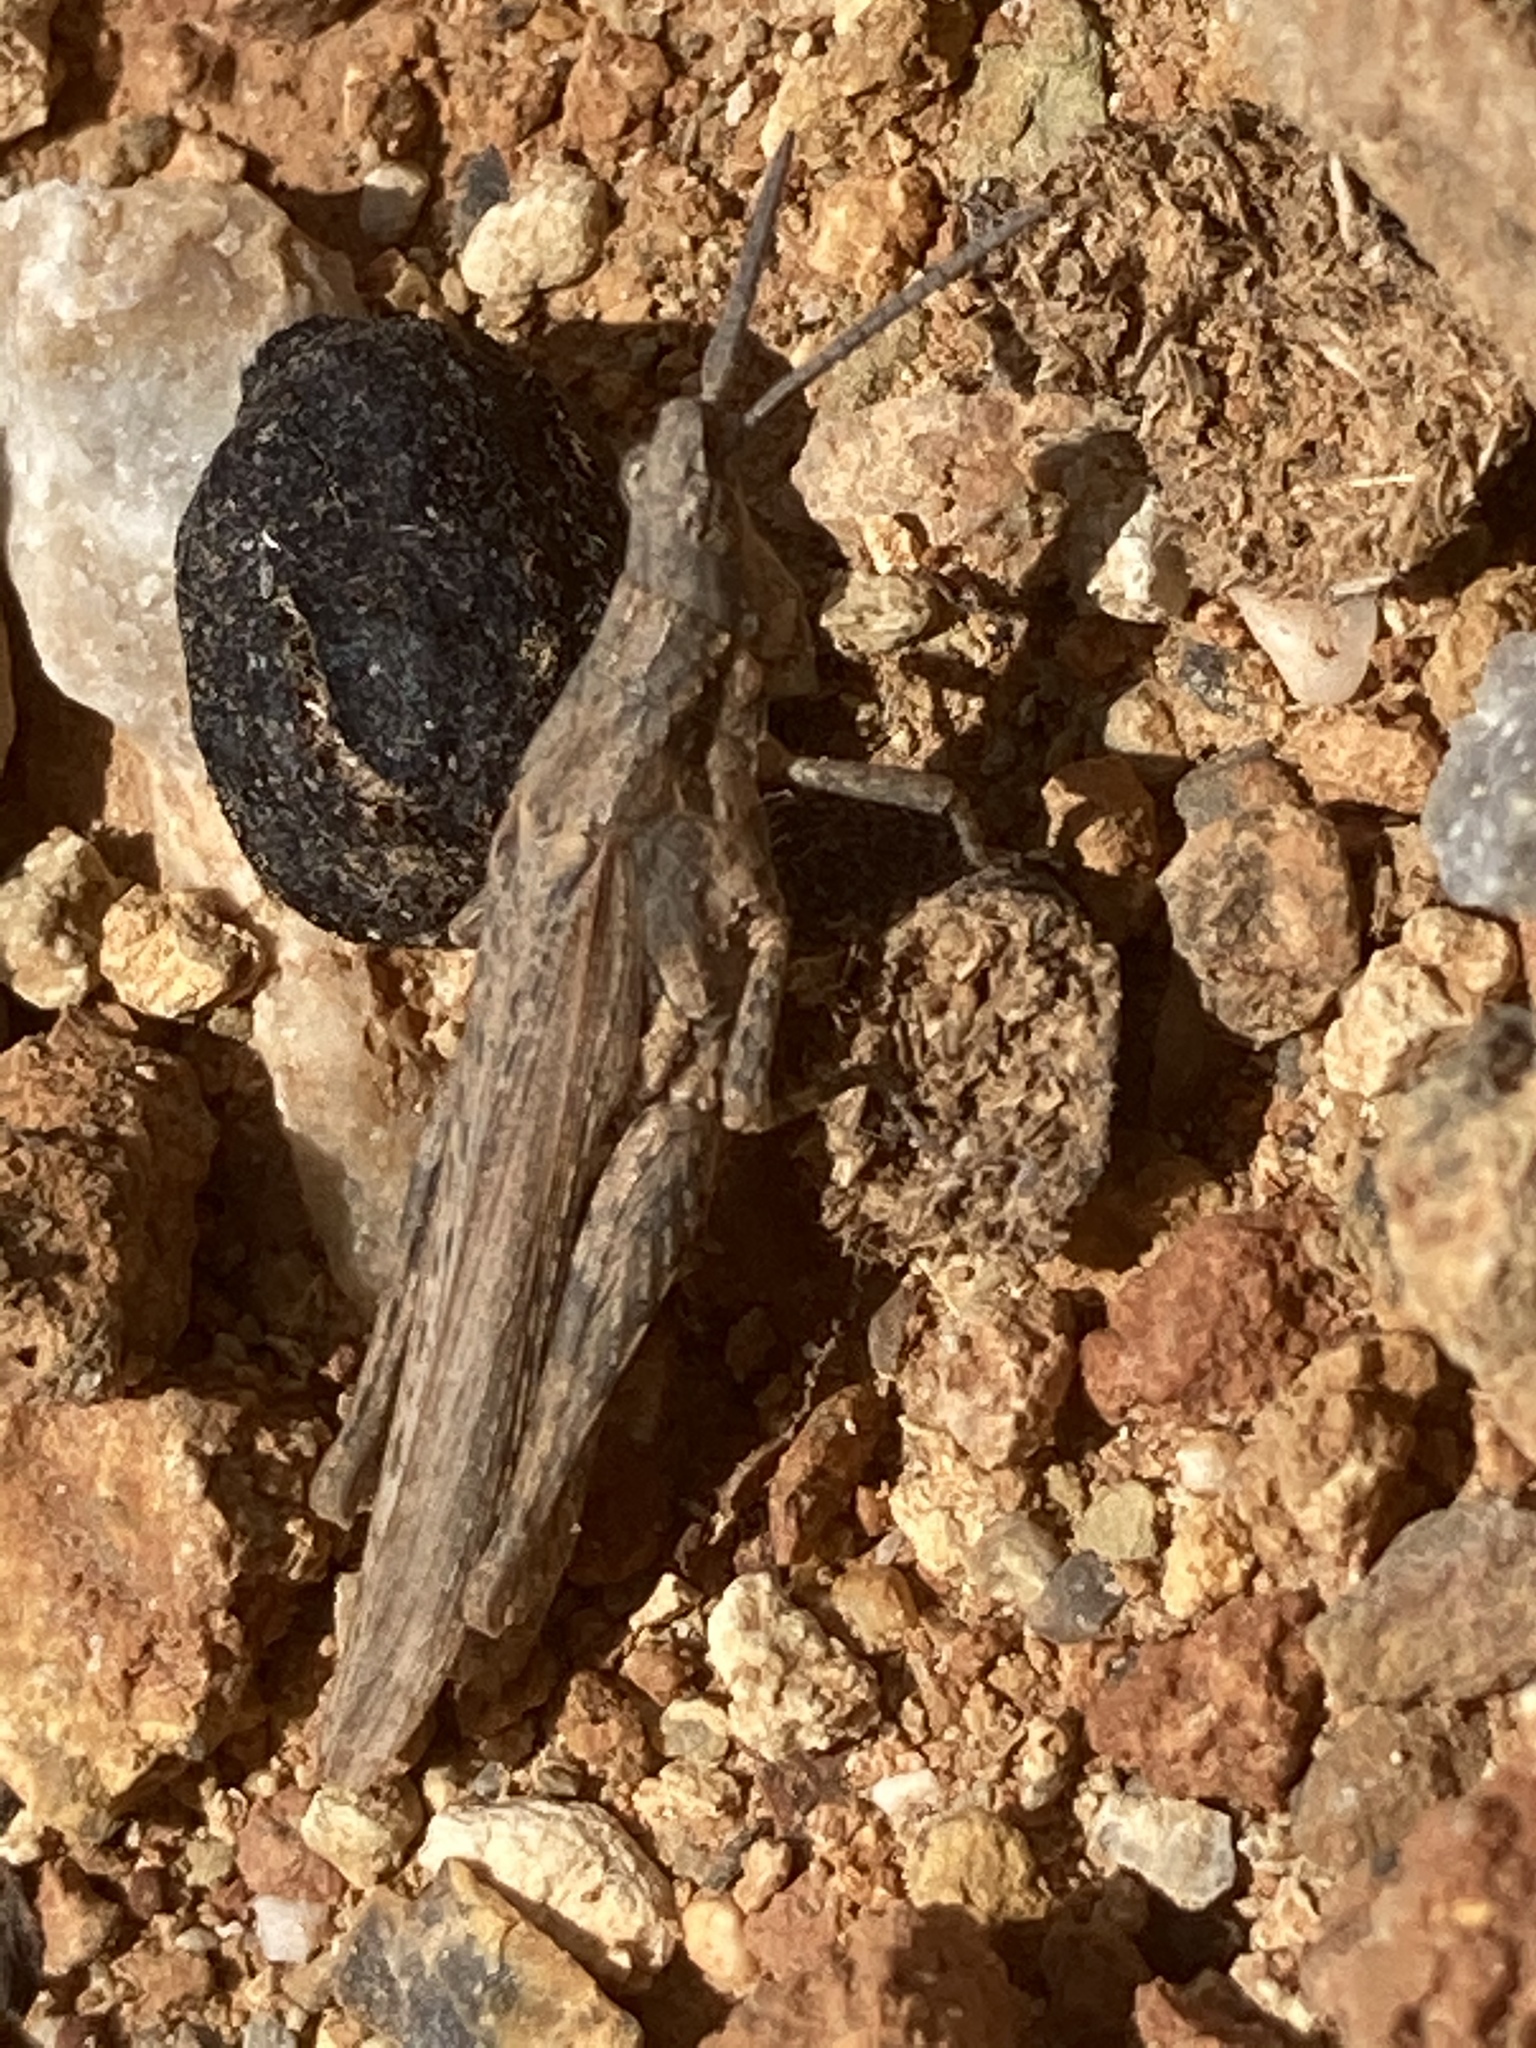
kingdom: Animalia
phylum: Arthropoda
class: Insecta
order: Orthoptera
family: Pyrgomorphidae
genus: Pyrgomorpha
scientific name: Pyrgomorpha conica
